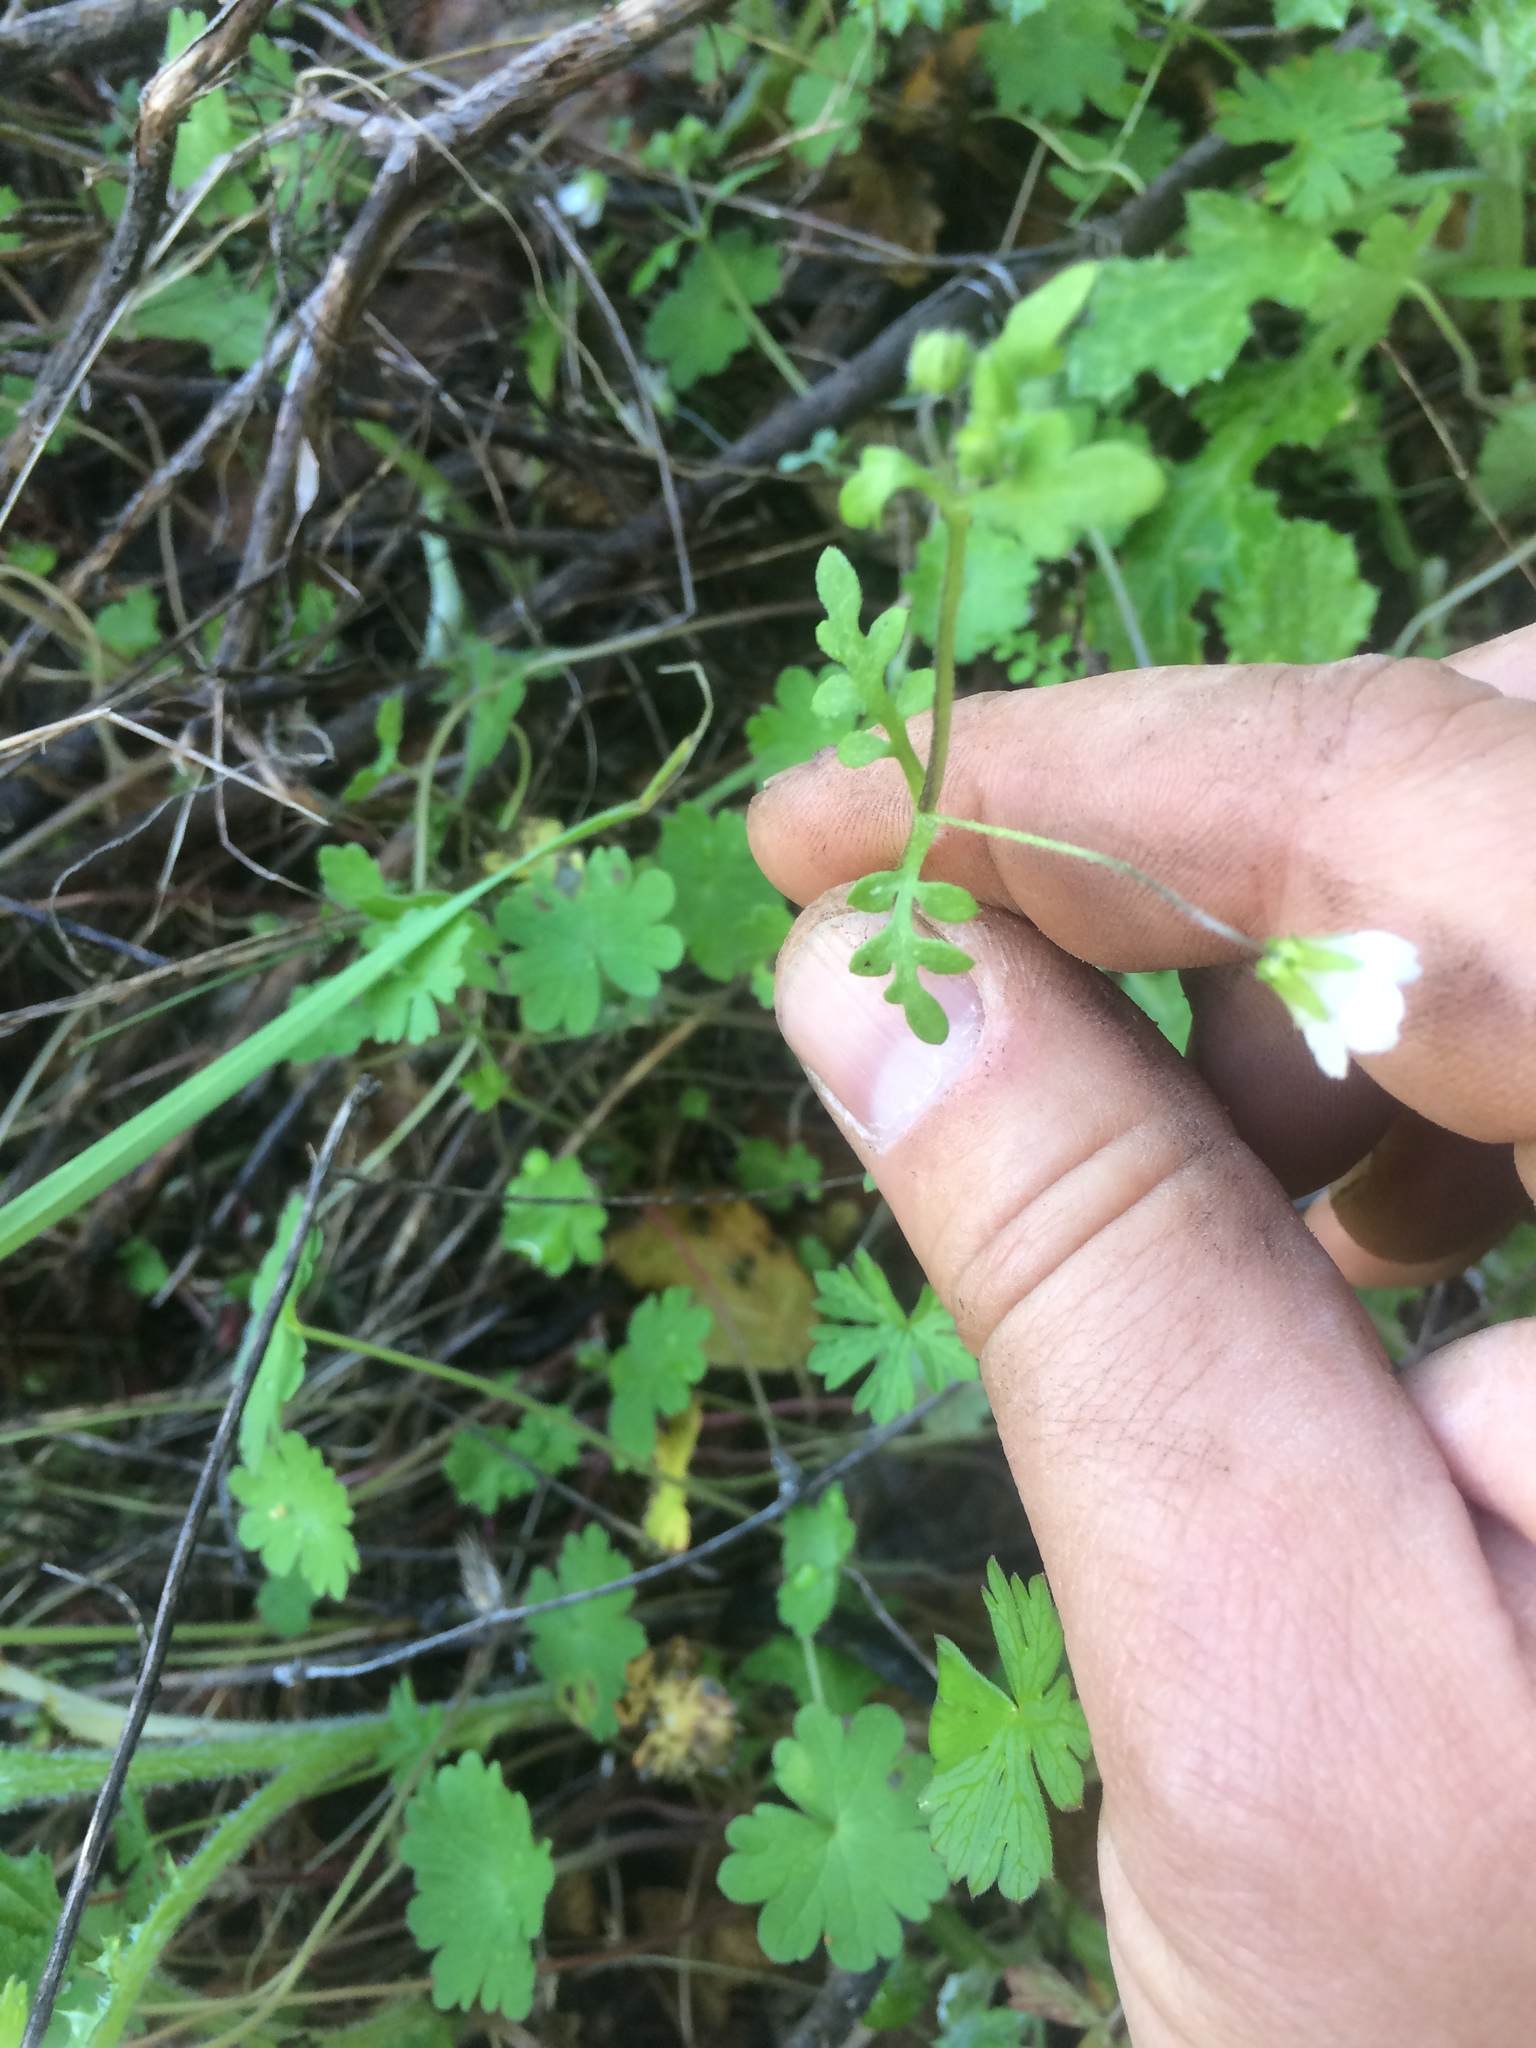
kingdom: Plantae
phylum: Tracheophyta
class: Magnoliopsida
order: Boraginales
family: Hydrophyllaceae
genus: Nemophila
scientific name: Nemophila heterophylla
